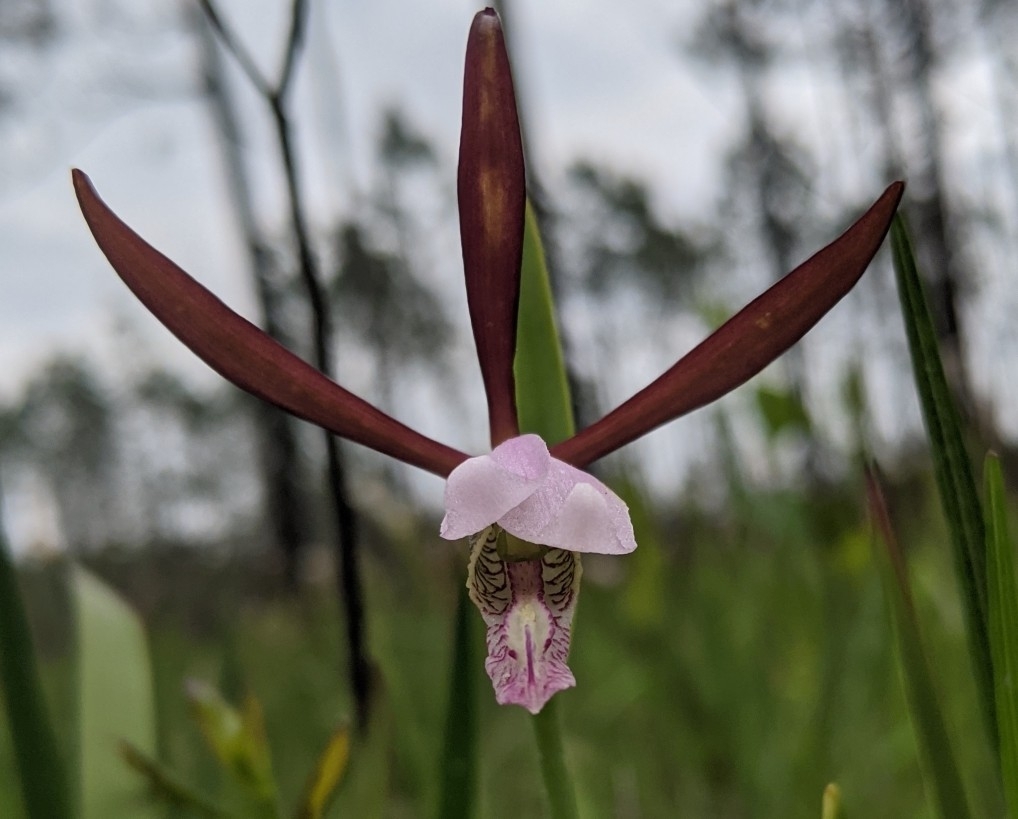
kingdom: Plantae
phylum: Tracheophyta
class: Liliopsida
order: Asparagales
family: Orchidaceae
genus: Cleistesiopsis
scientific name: Cleistesiopsis divaricata
